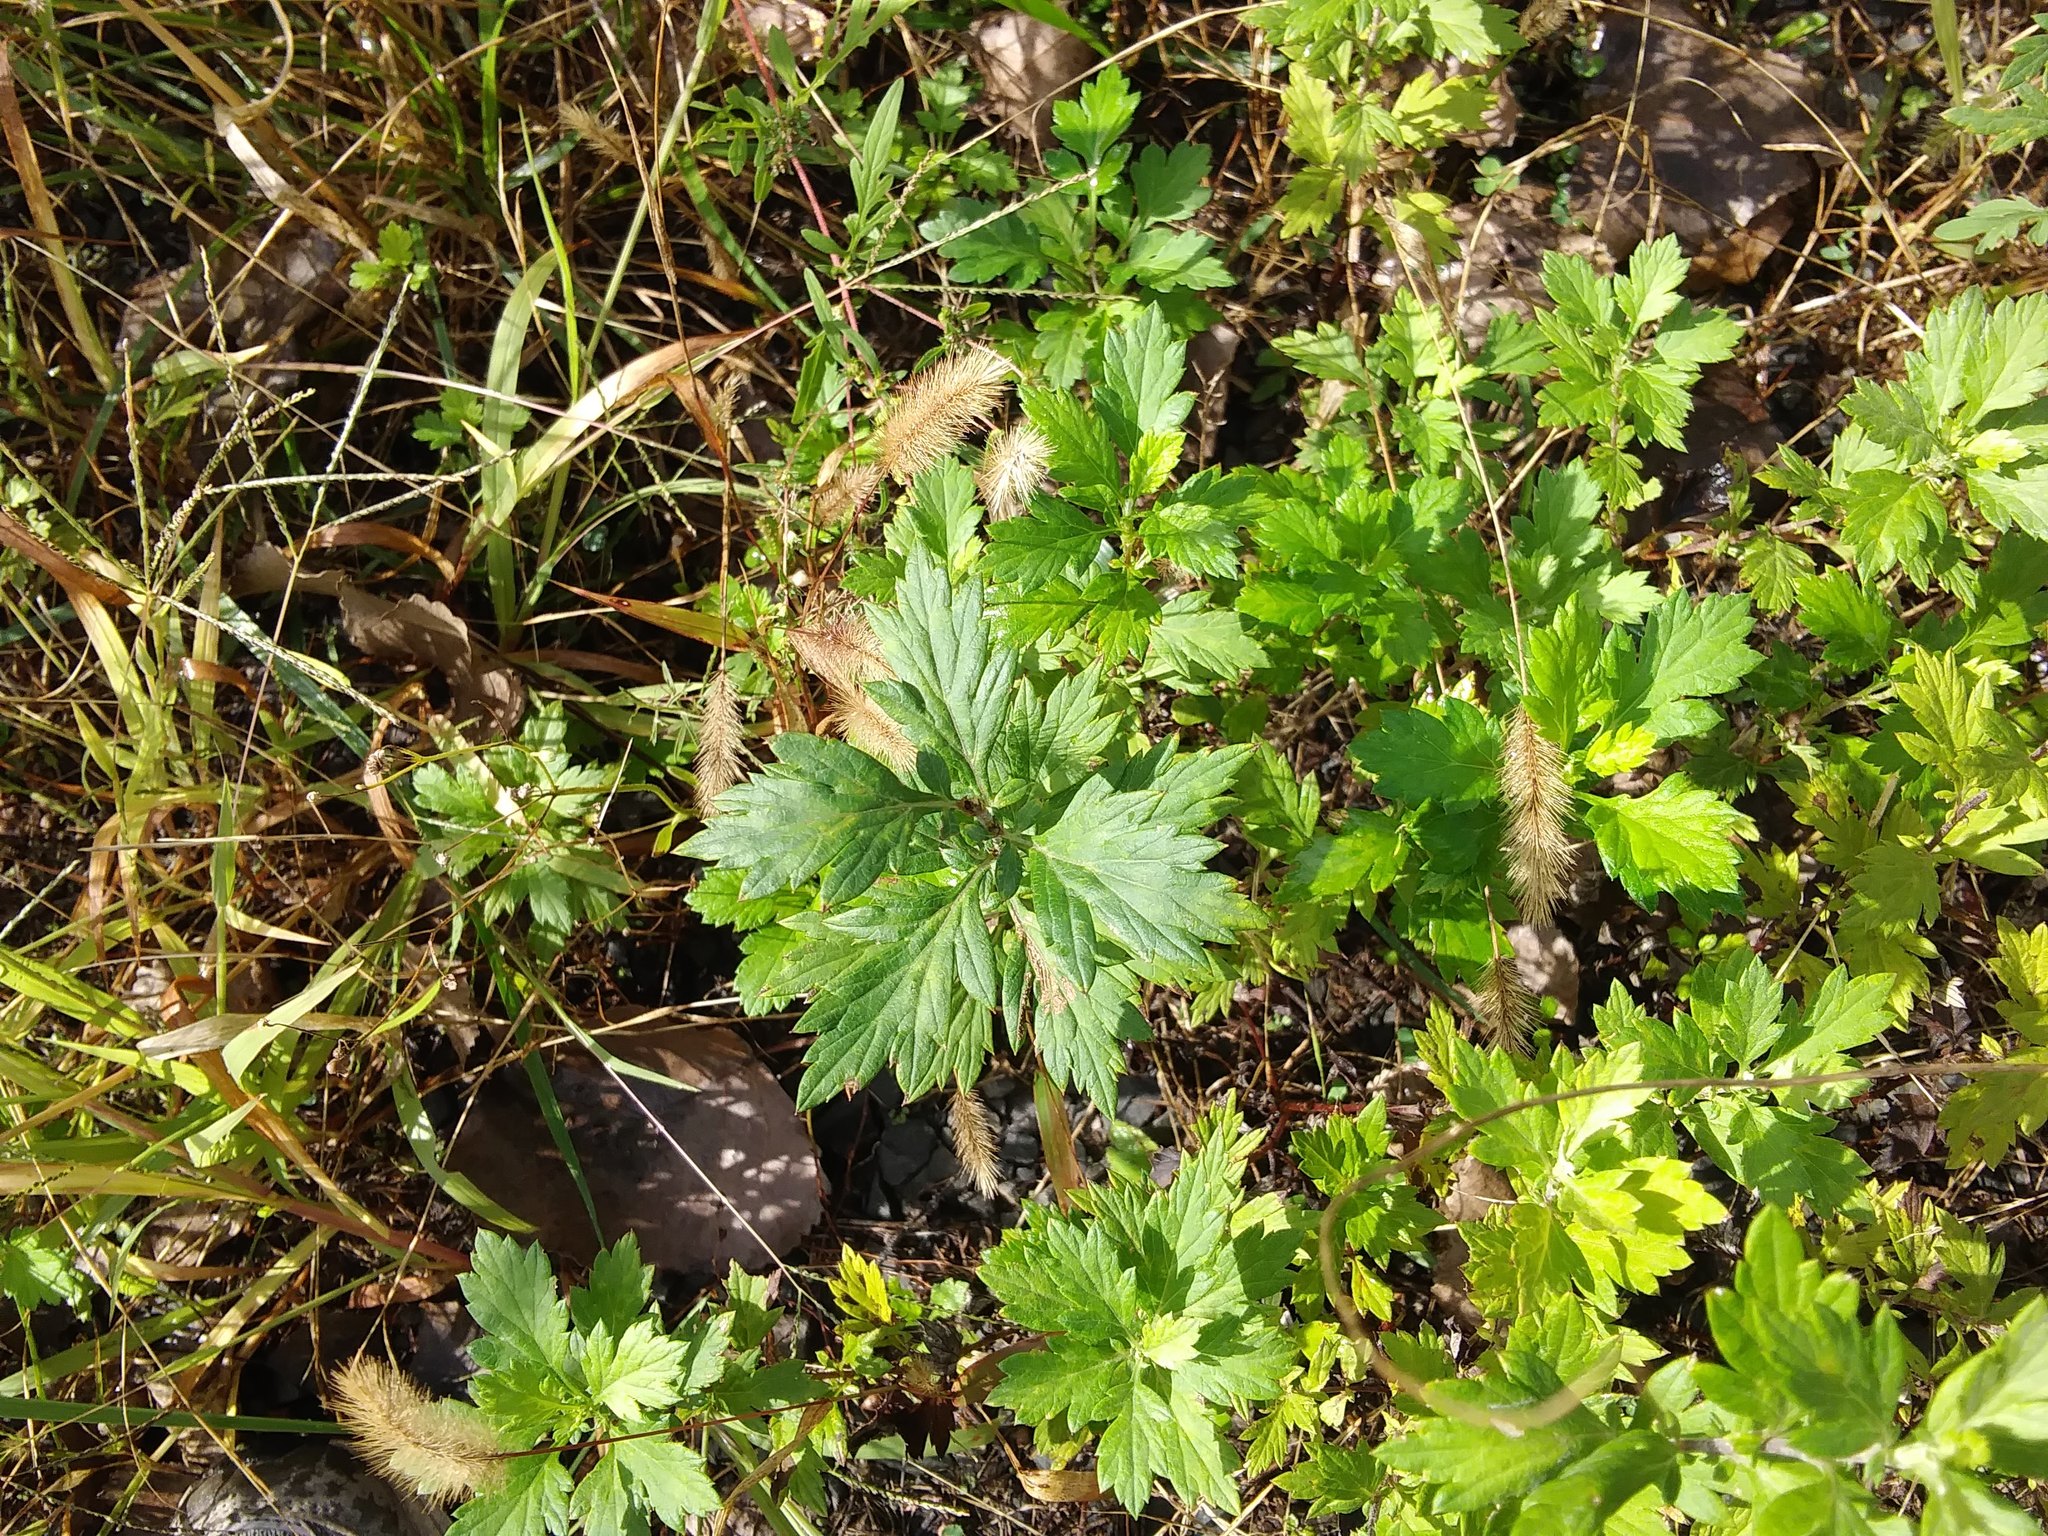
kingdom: Plantae
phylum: Tracheophyta
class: Magnoliopsida
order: Asterales
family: Asteraceae
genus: Artemisia
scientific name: Artemisia vulgaris
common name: Mugwort
